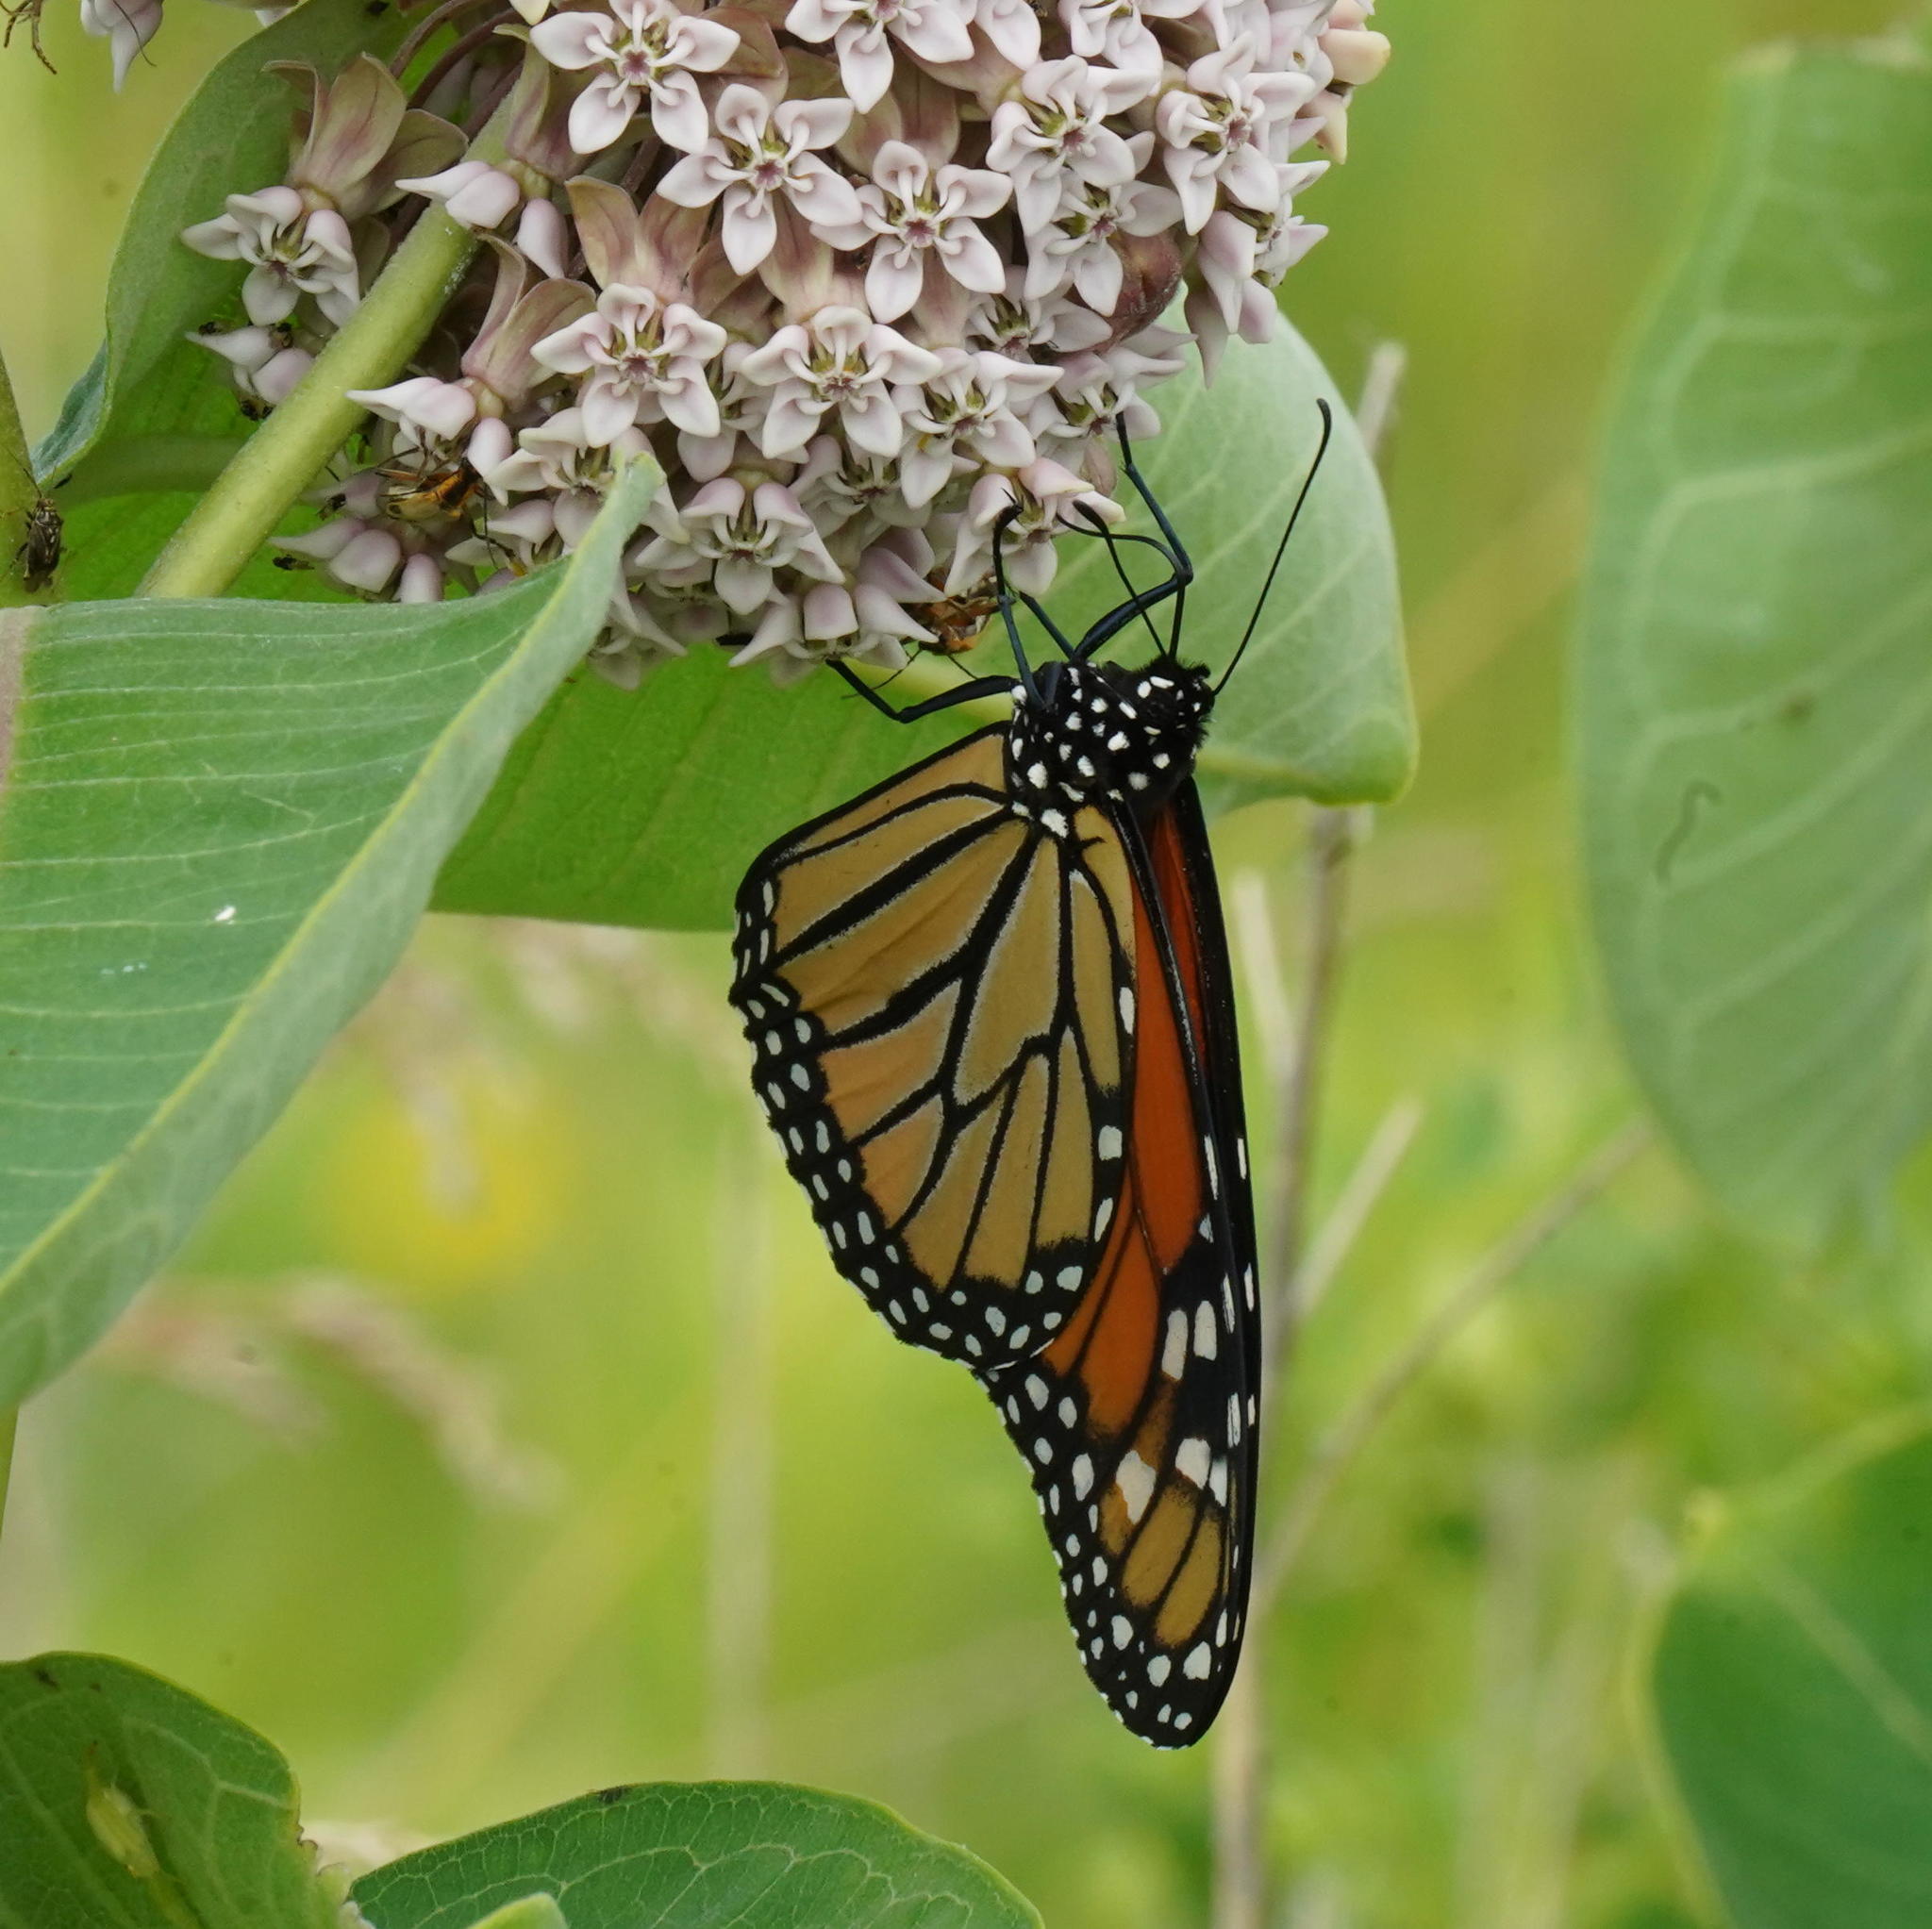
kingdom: Animalia
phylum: Arthropoda
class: Insecta
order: Lepidoptera
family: Nymphalidae
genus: Danaus
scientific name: Danaus plexippus
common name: Monarch
